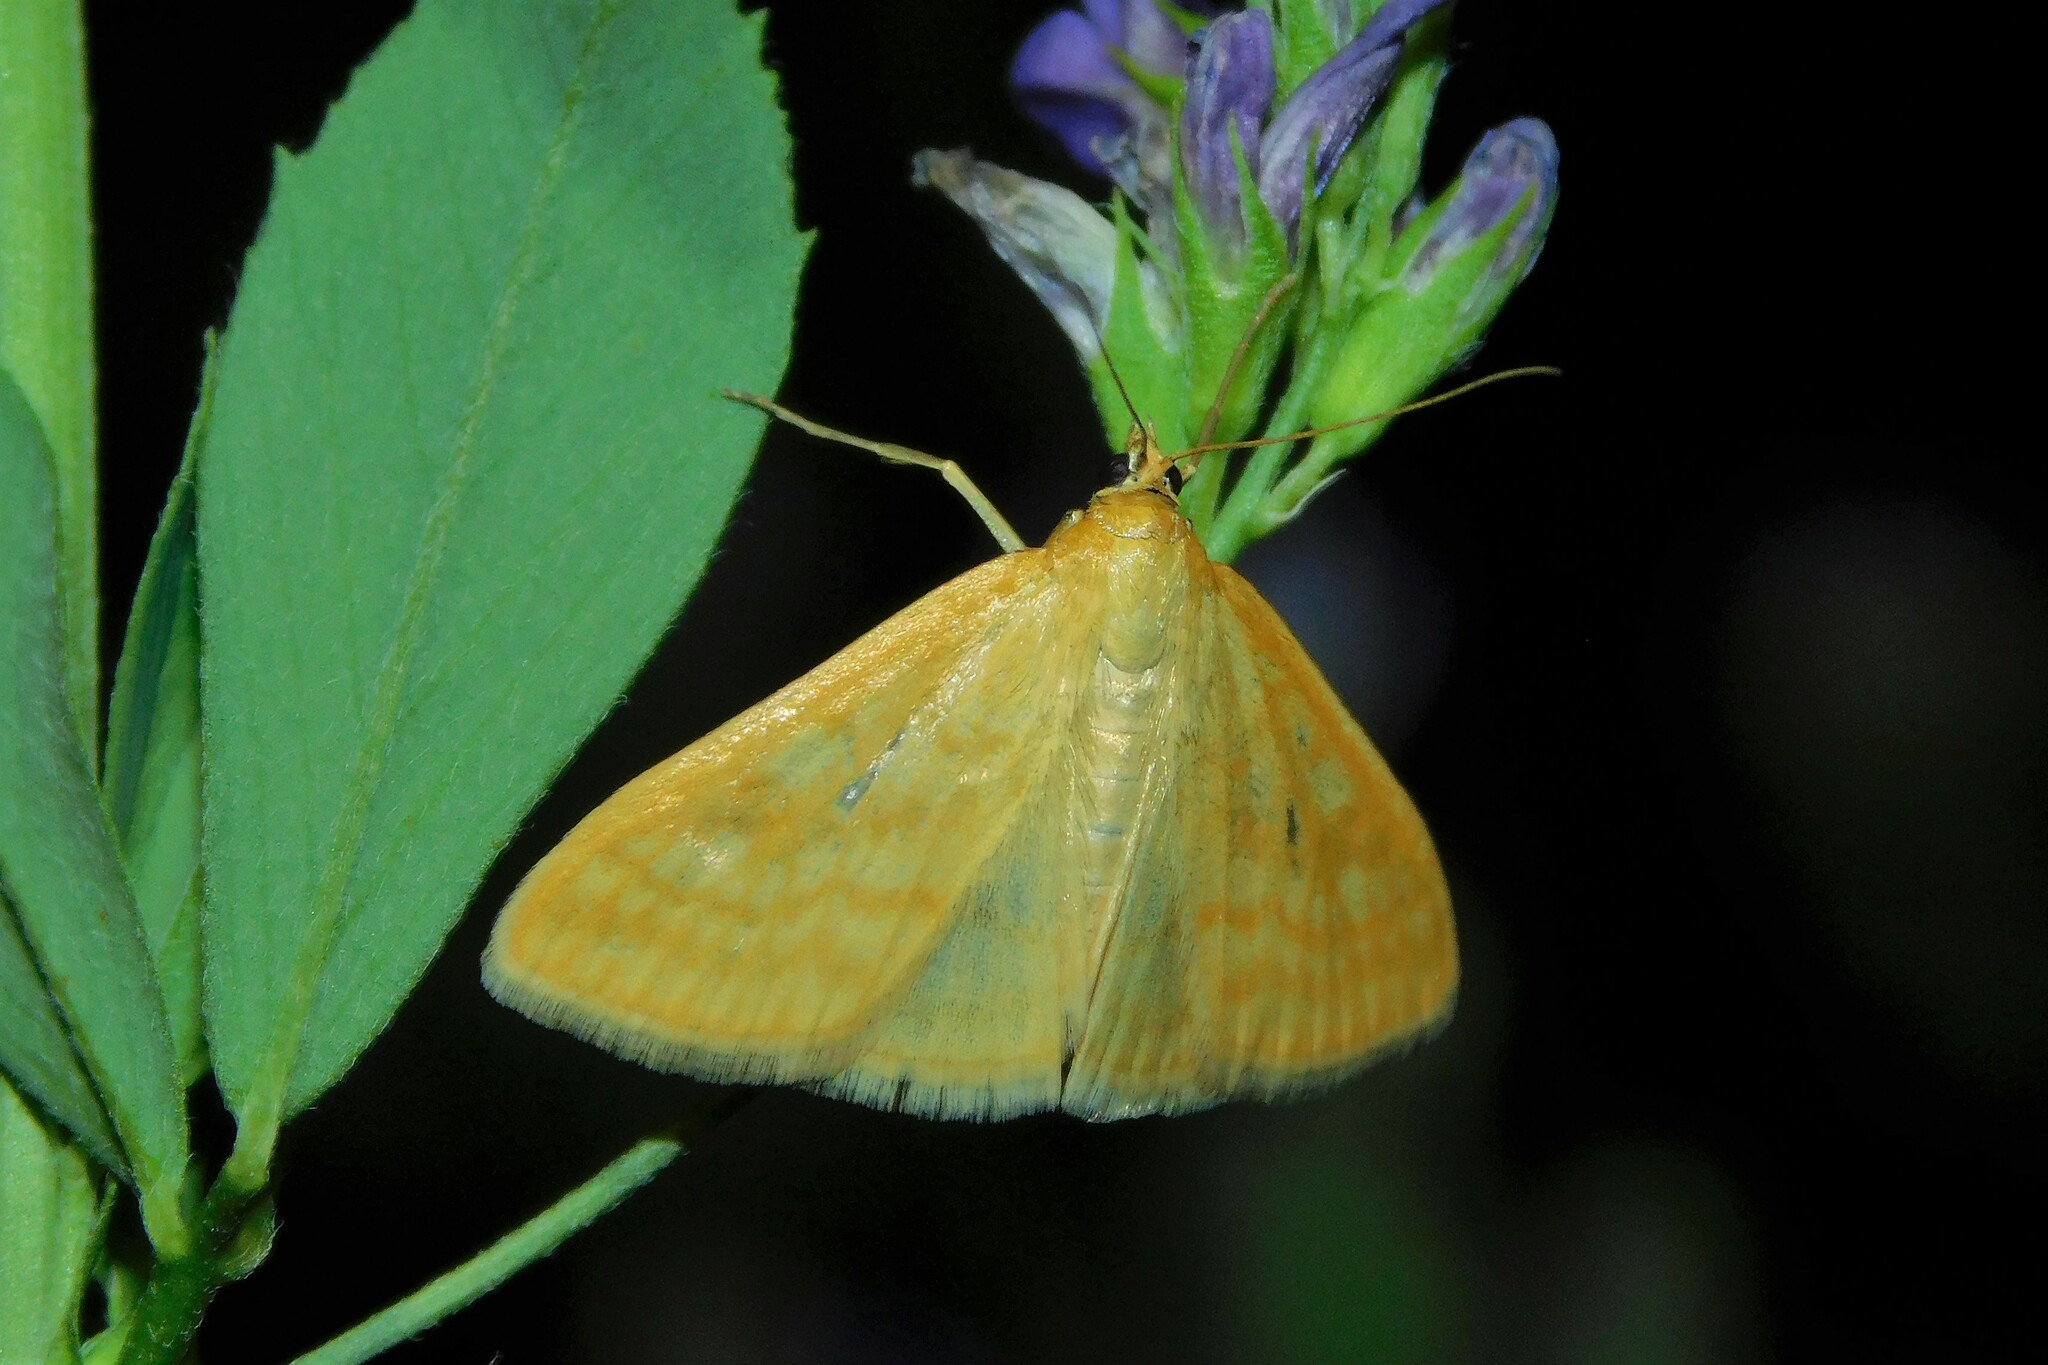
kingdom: Animalia
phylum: Arthropoda
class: Insecta
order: Lepidoptera
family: Crambidae
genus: Sitochroa
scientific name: Sitochroa verticalis
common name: Lesser pearl
